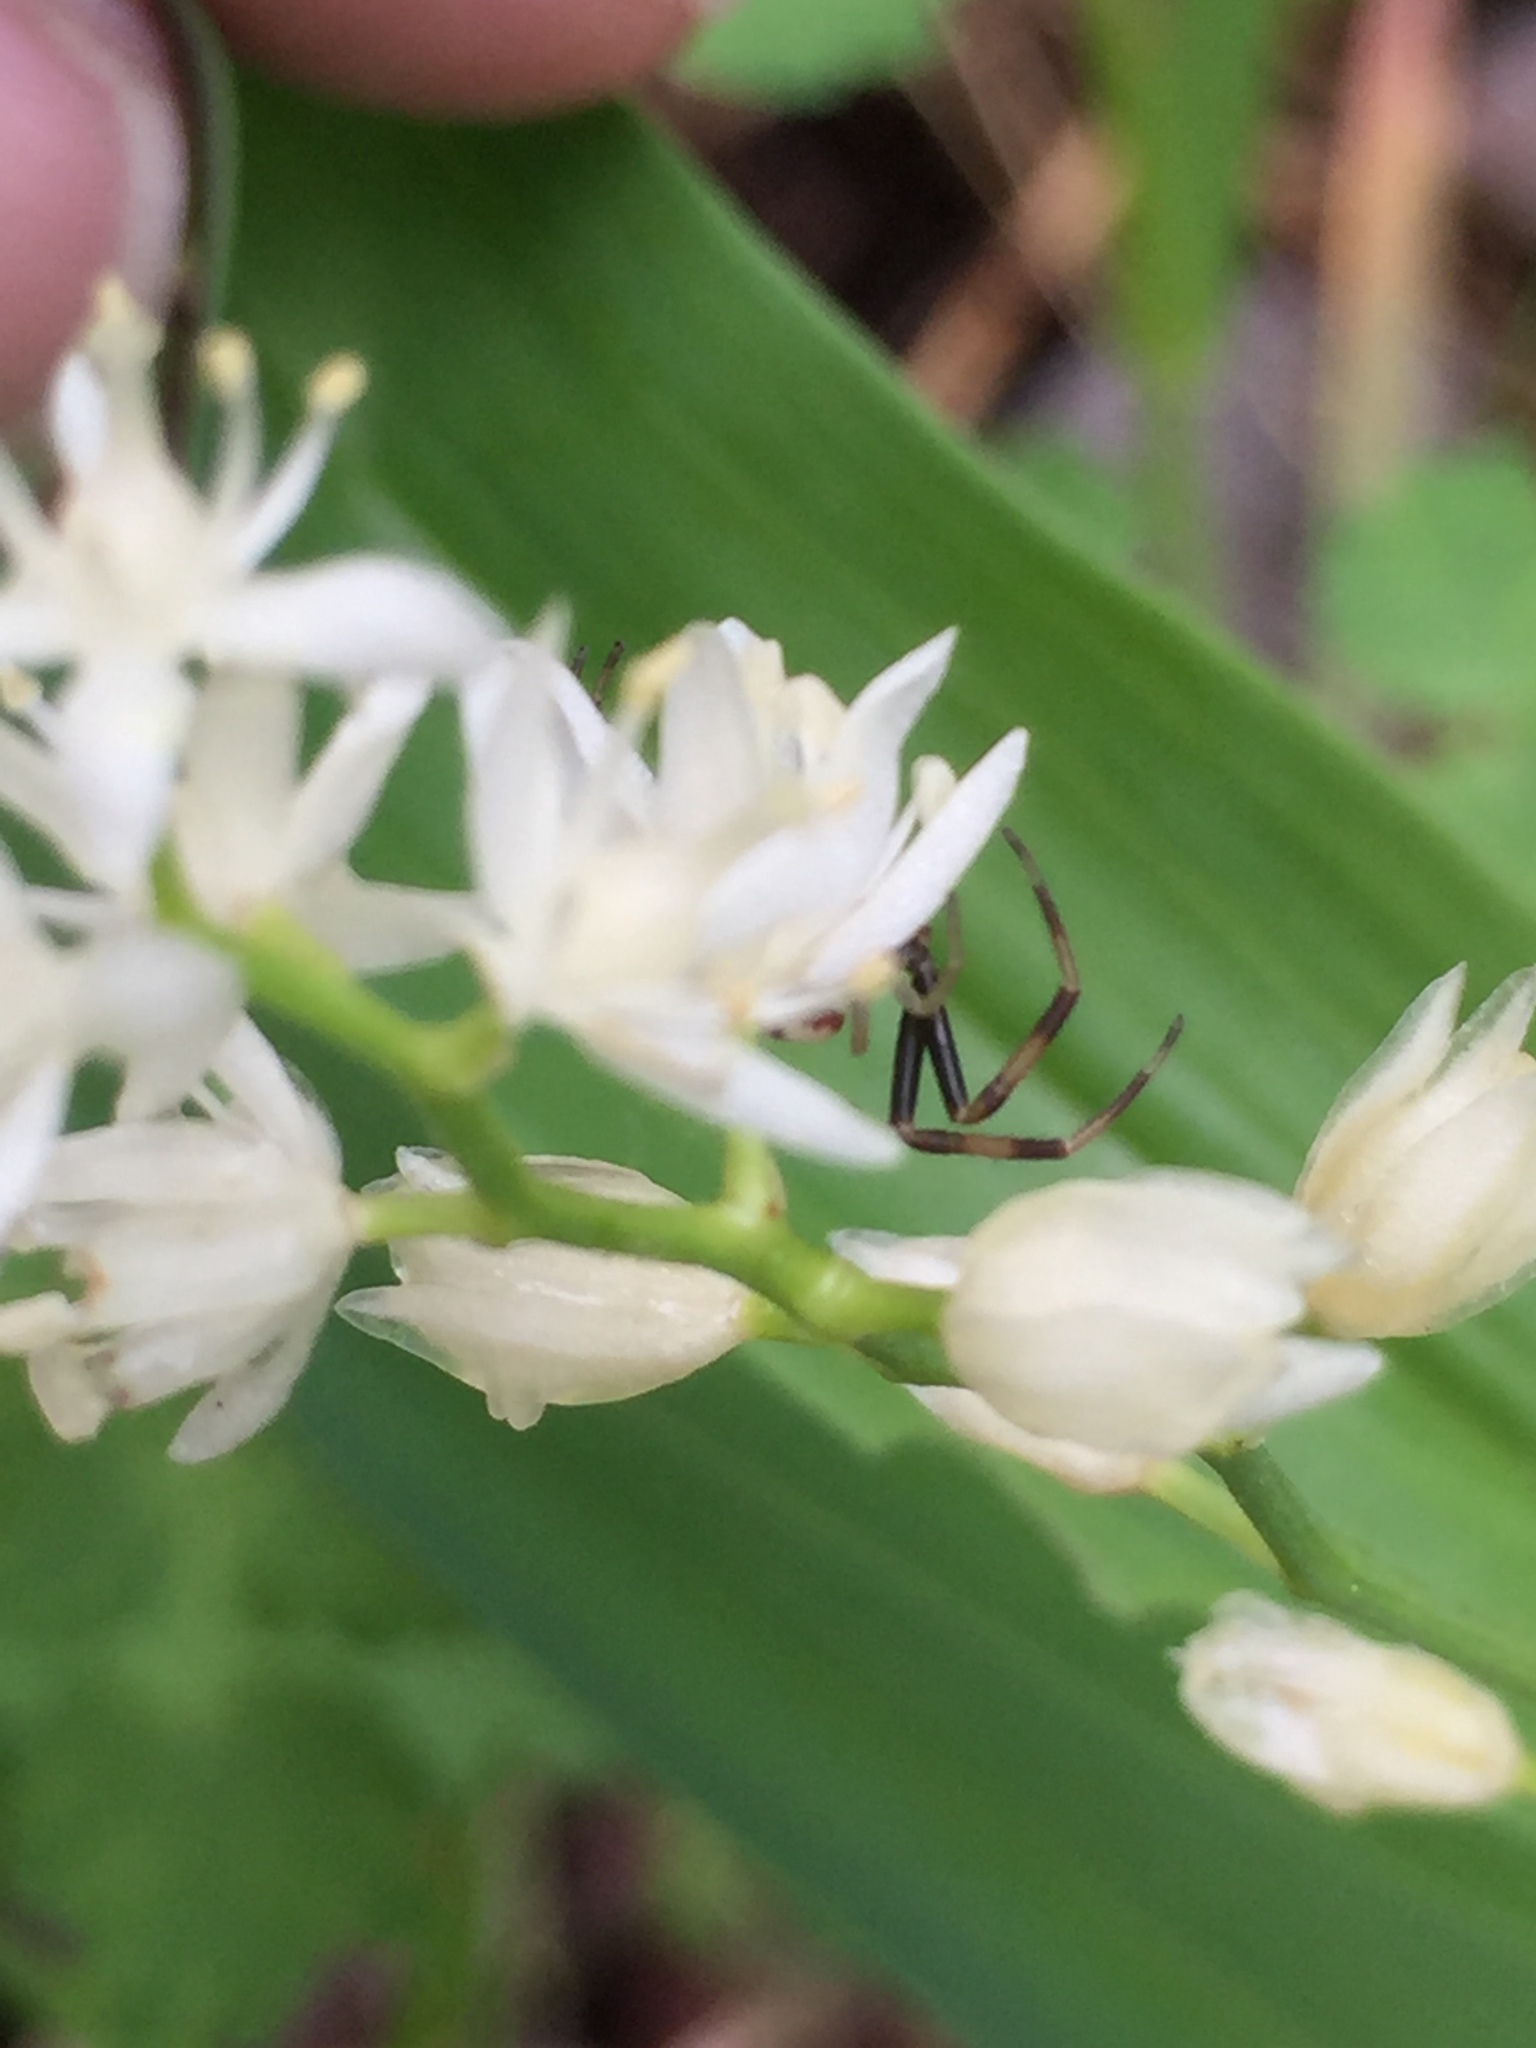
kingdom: Animalia
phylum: Arthropoda
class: Arachnida
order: Araneae
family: Thomisidae
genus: Misumena
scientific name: Misumena vatia
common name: Goldenrod crab spider
